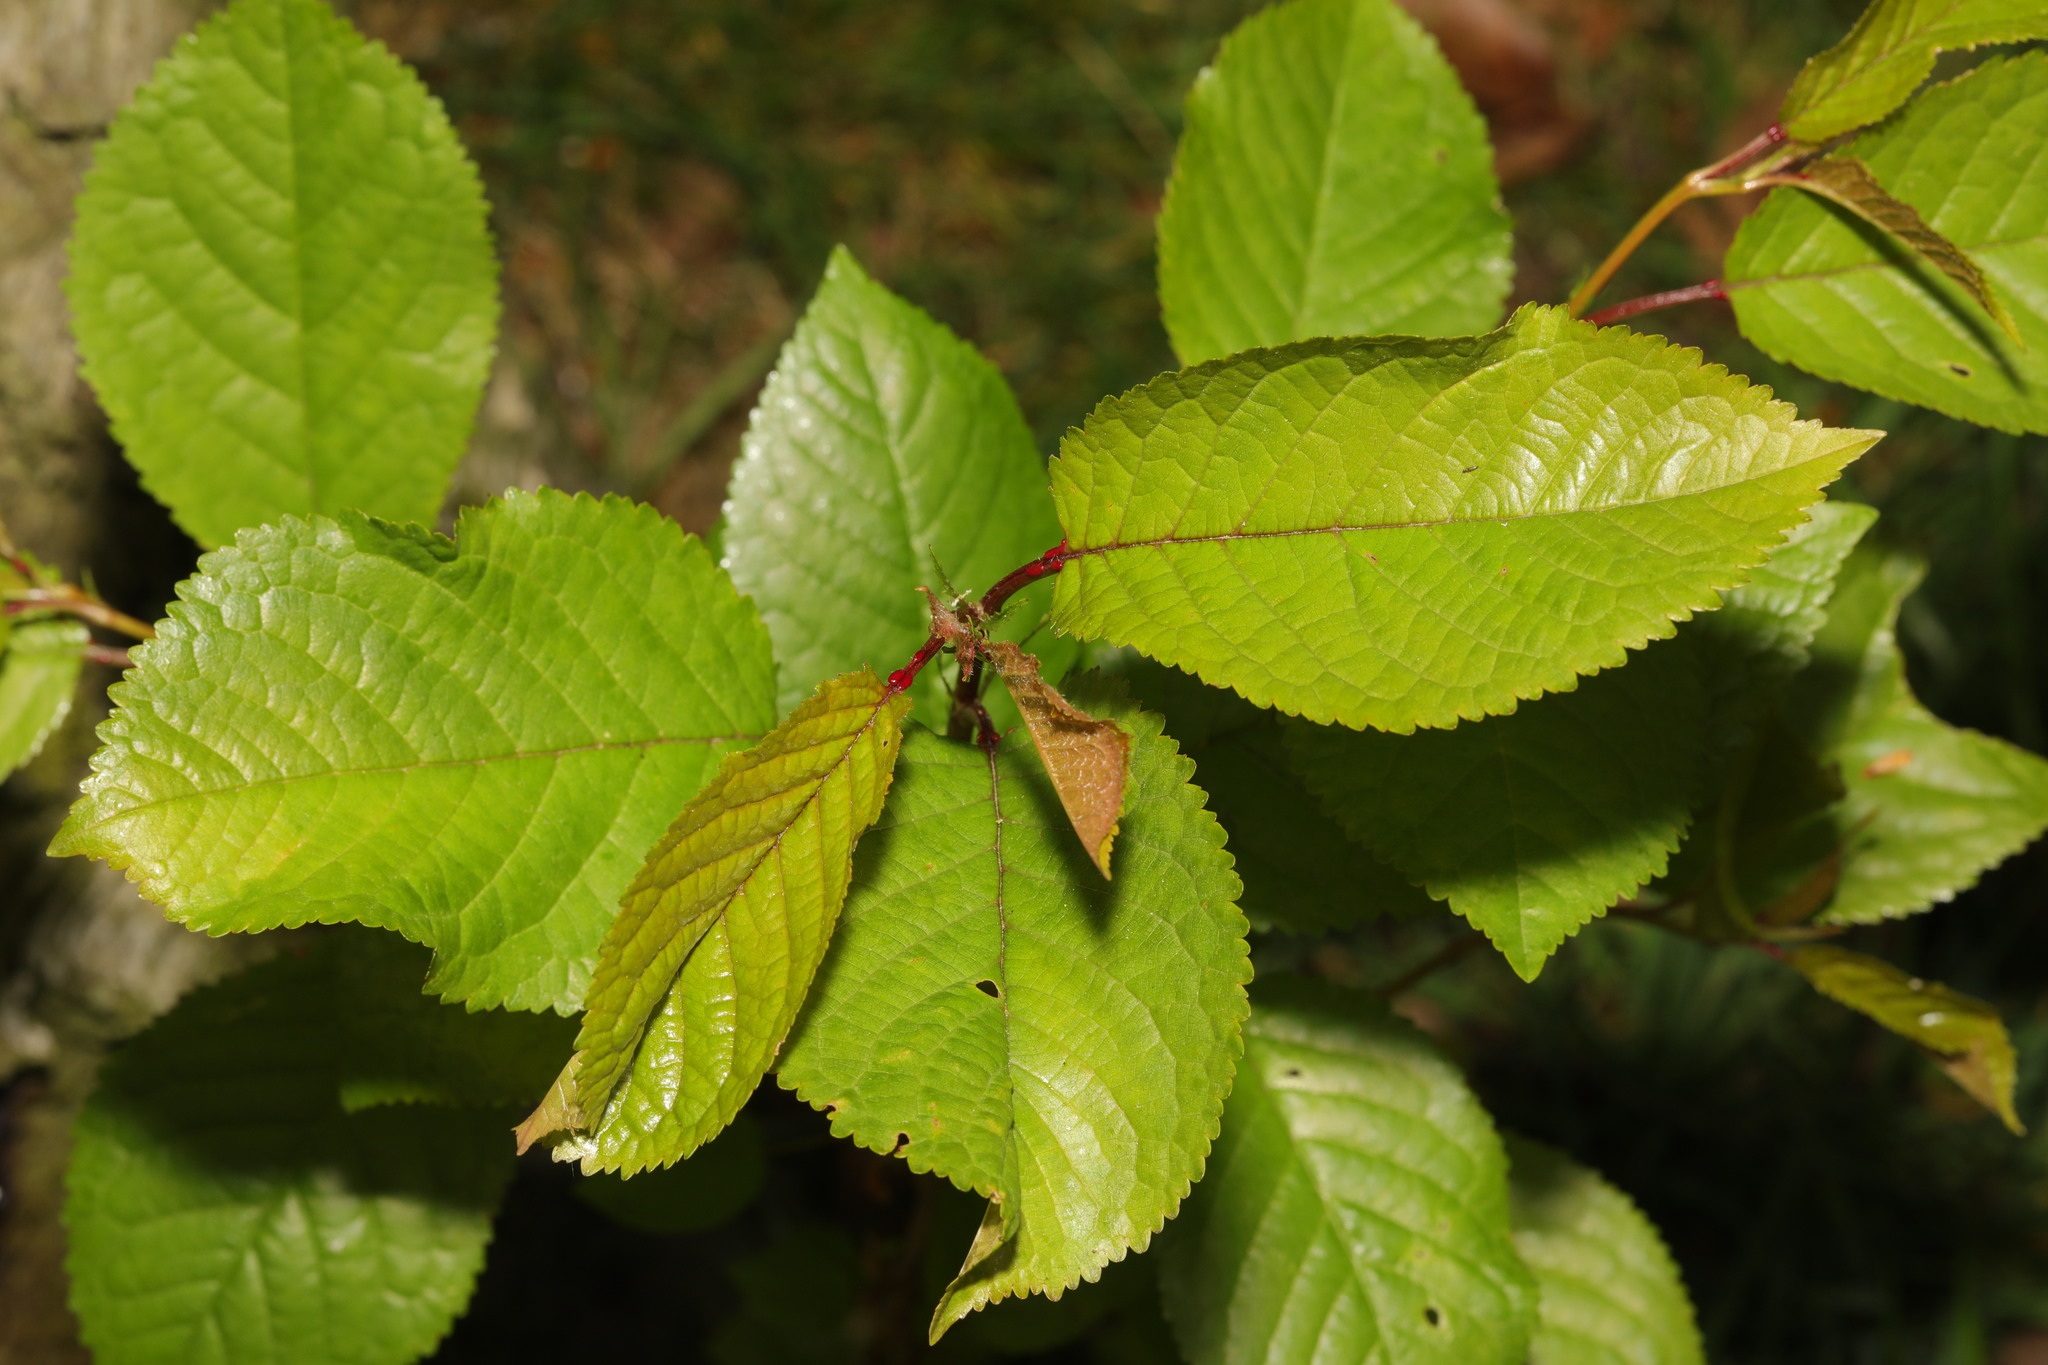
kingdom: Plantae
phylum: Tracheophyta
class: Magnoliopsida
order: Rosales
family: Rosaceae
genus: Prunus
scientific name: Prunus avium
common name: Sweet cherry
